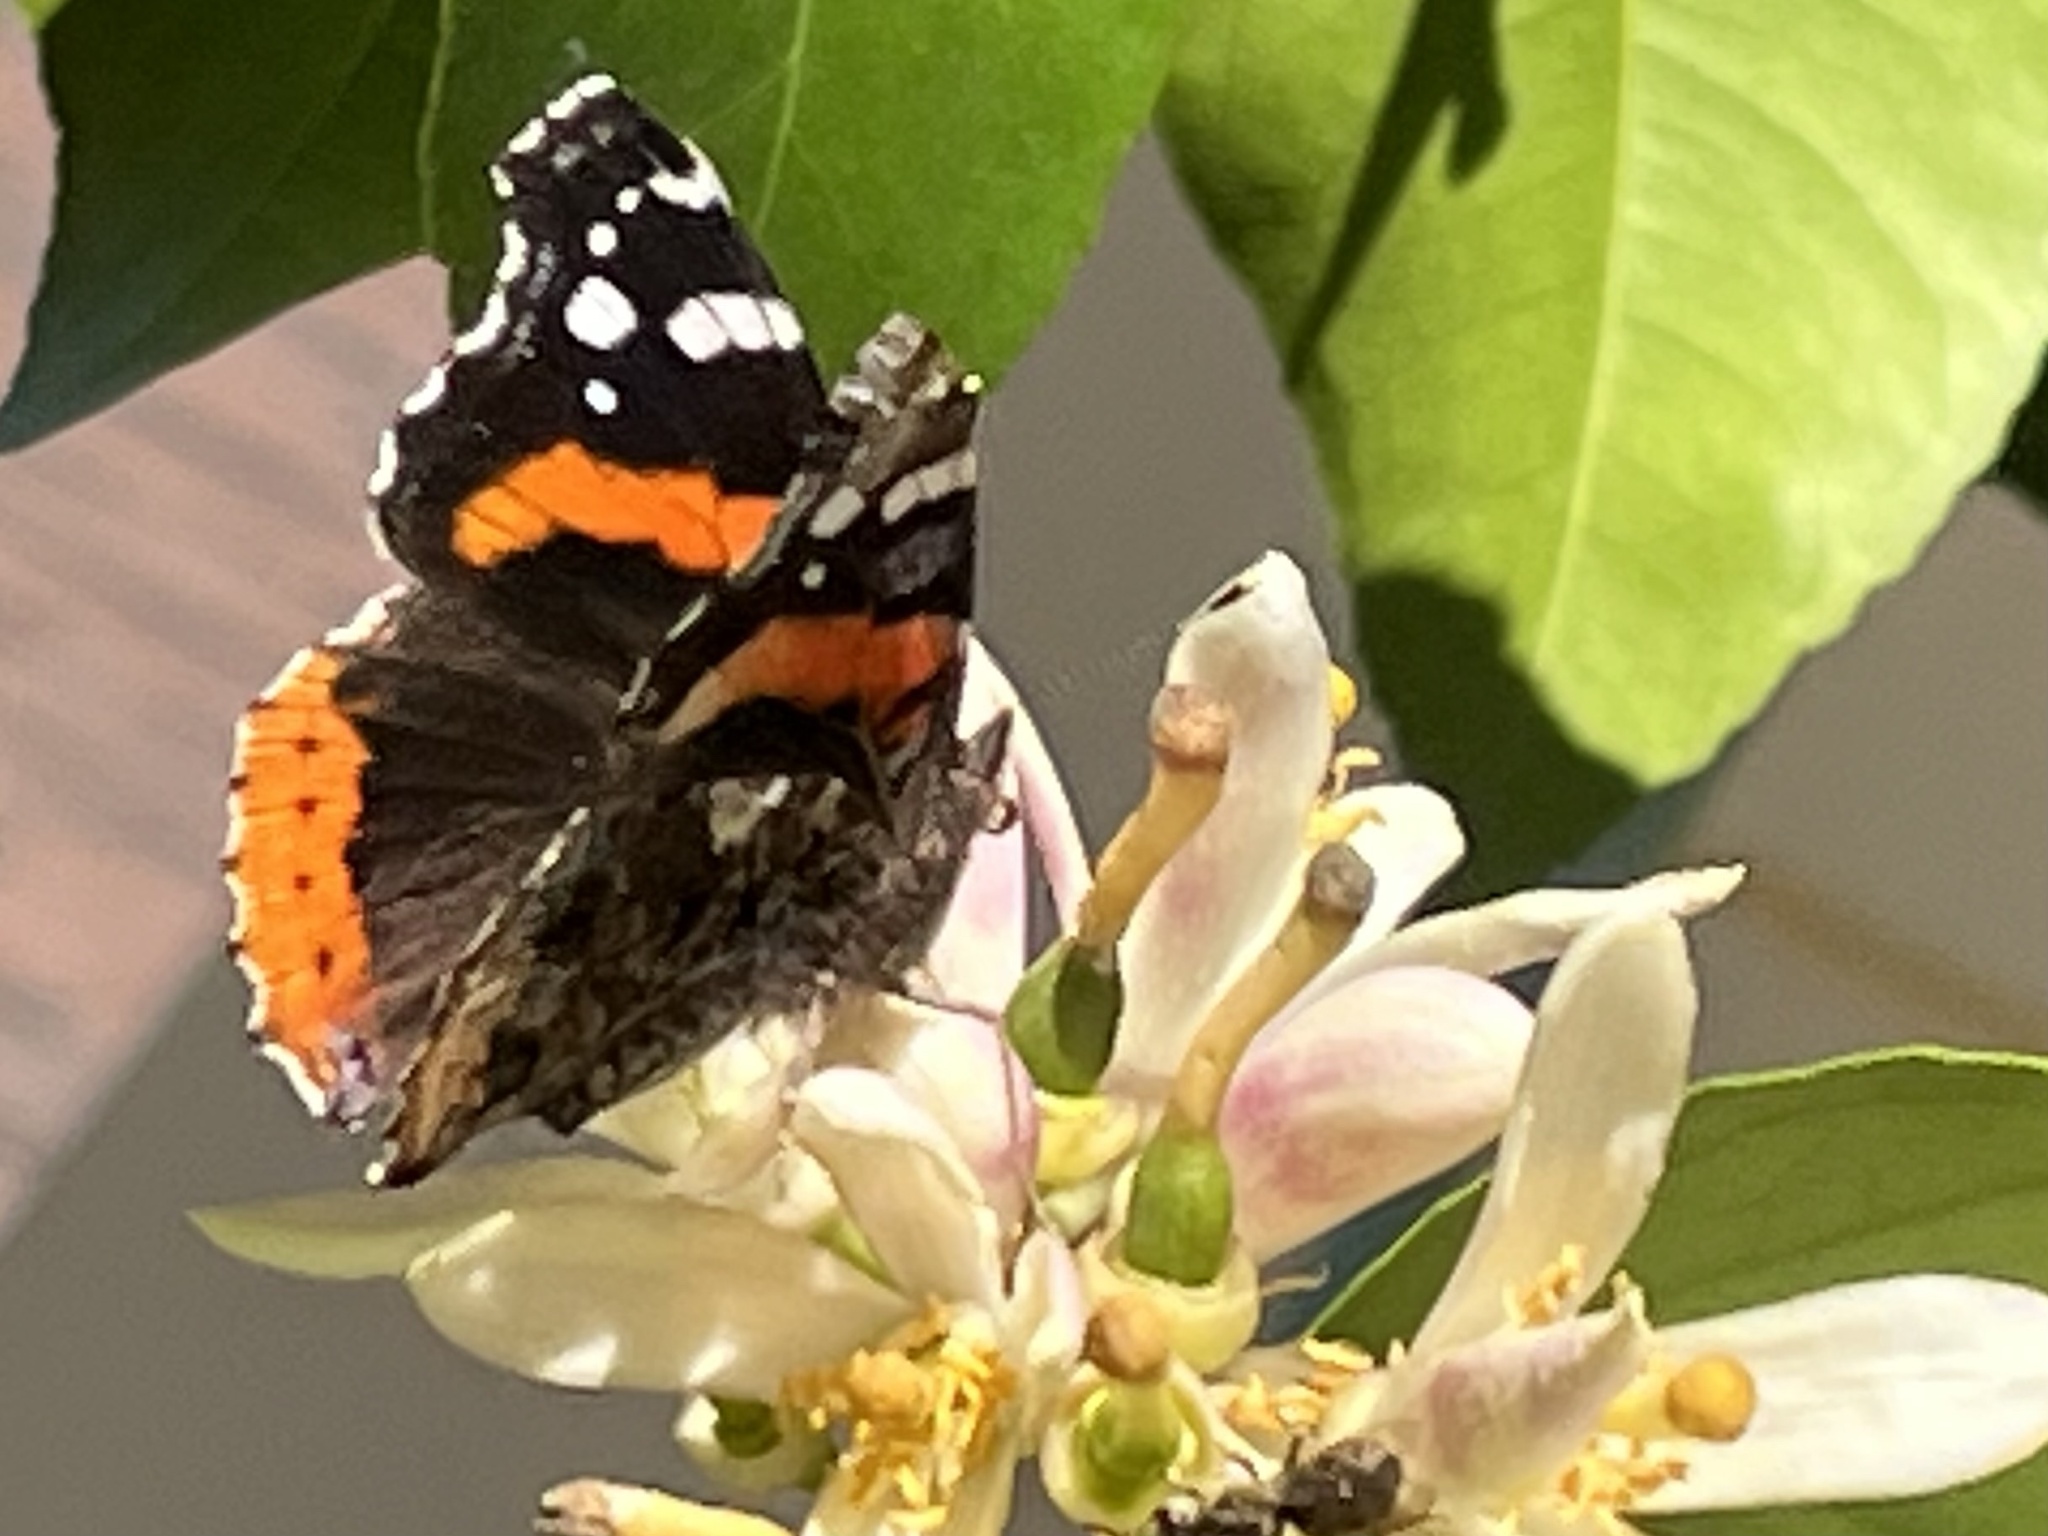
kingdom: Animalia
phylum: Arthropoda
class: Insecta
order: Lepidoptera
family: Nymphalidae
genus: Vanessa
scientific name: Vanessa atalanta
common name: Red admiral
